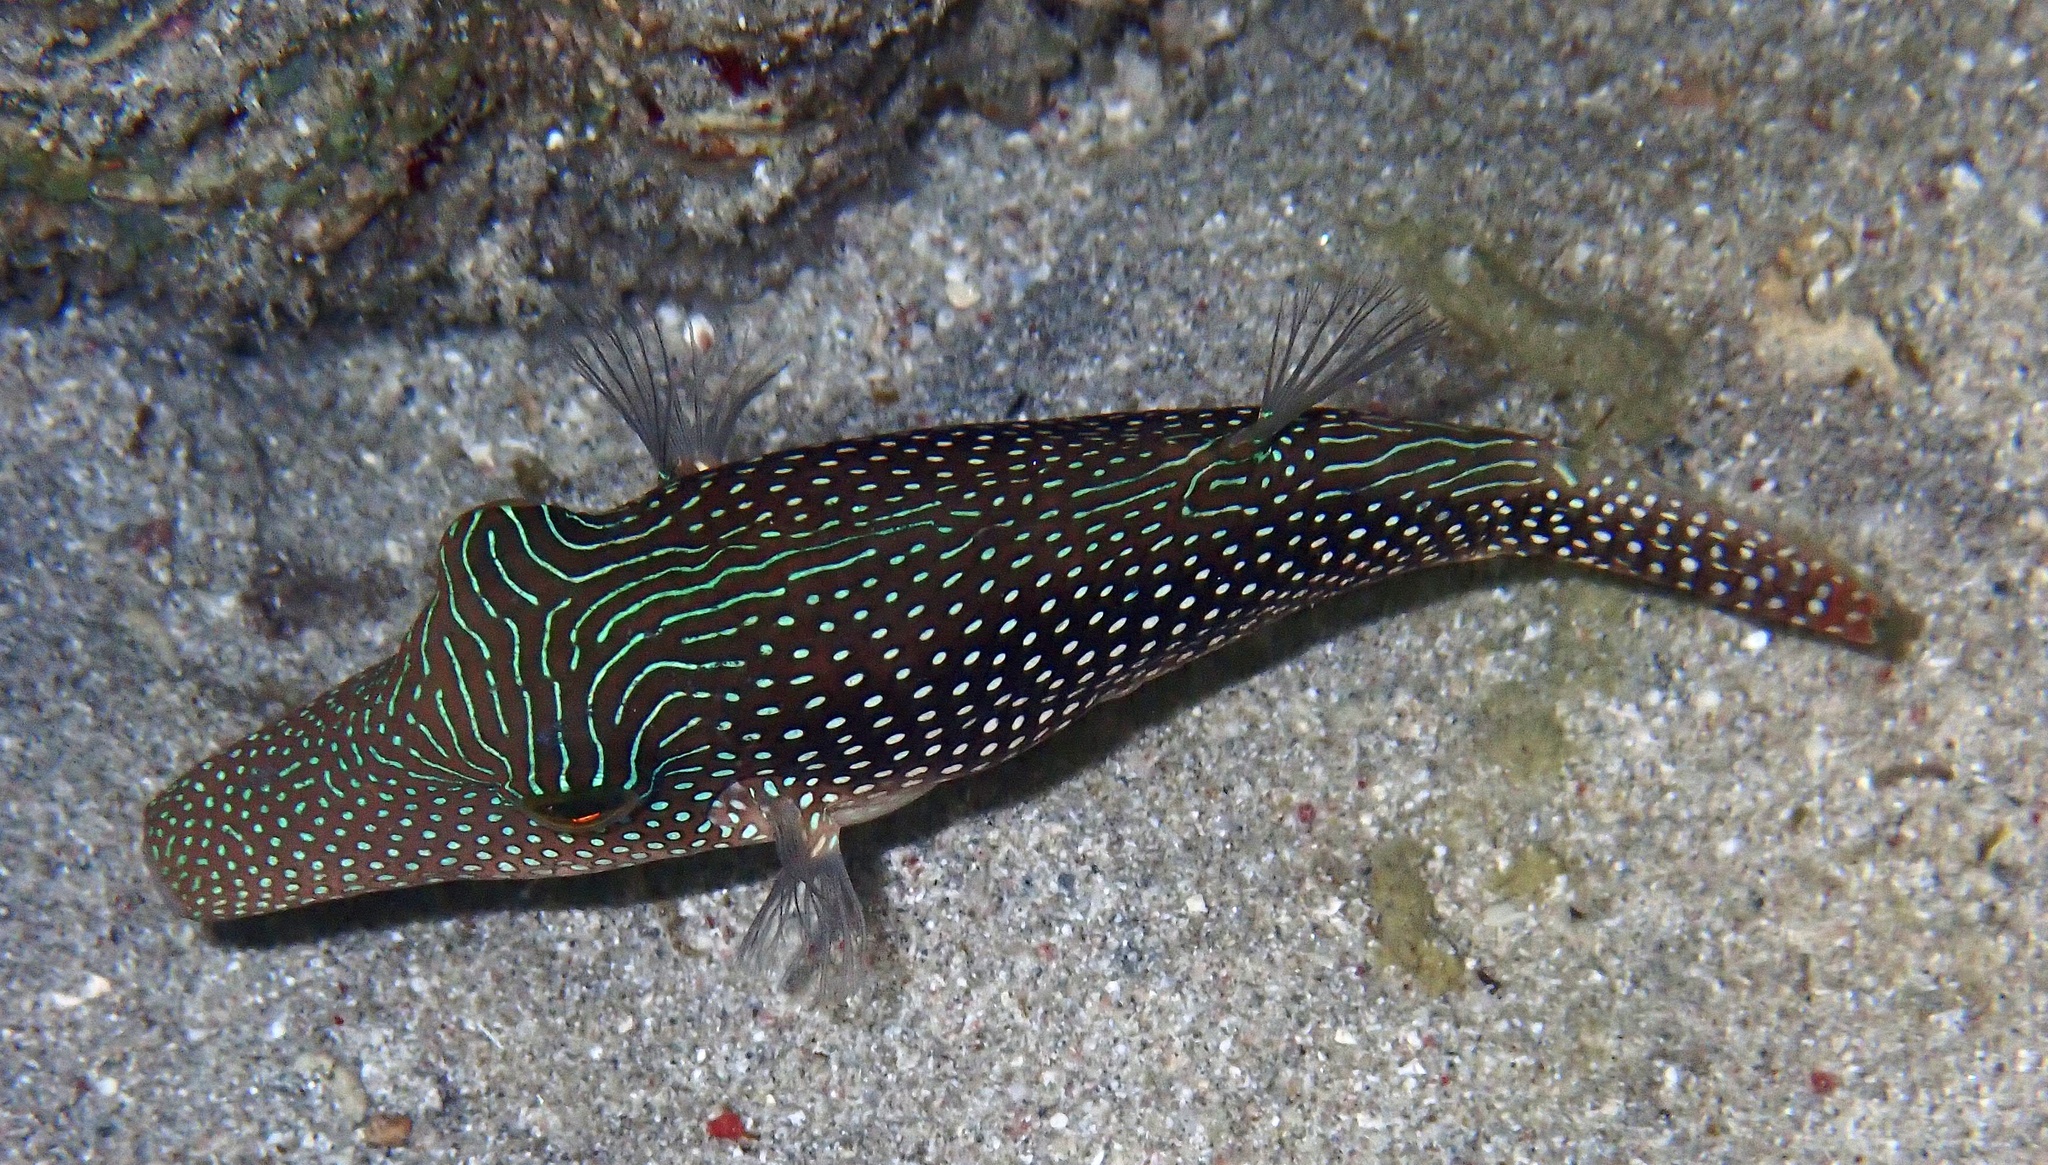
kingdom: Animalia
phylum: Chordata
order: Tetraodontiformes
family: Tetraodontidae
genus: Canthigaster
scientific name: Canthigaster margaritata
